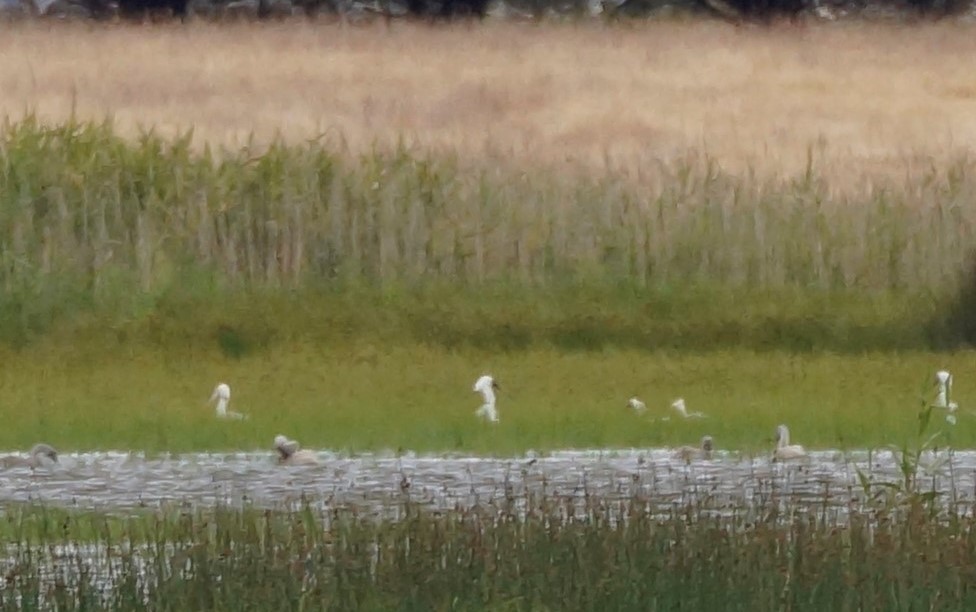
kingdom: Animalia
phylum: Chordata
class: Aves
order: Pelecaniformes
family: Threskiornithidae
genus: Platalea
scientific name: Platalea regia
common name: Royal spoonbill
